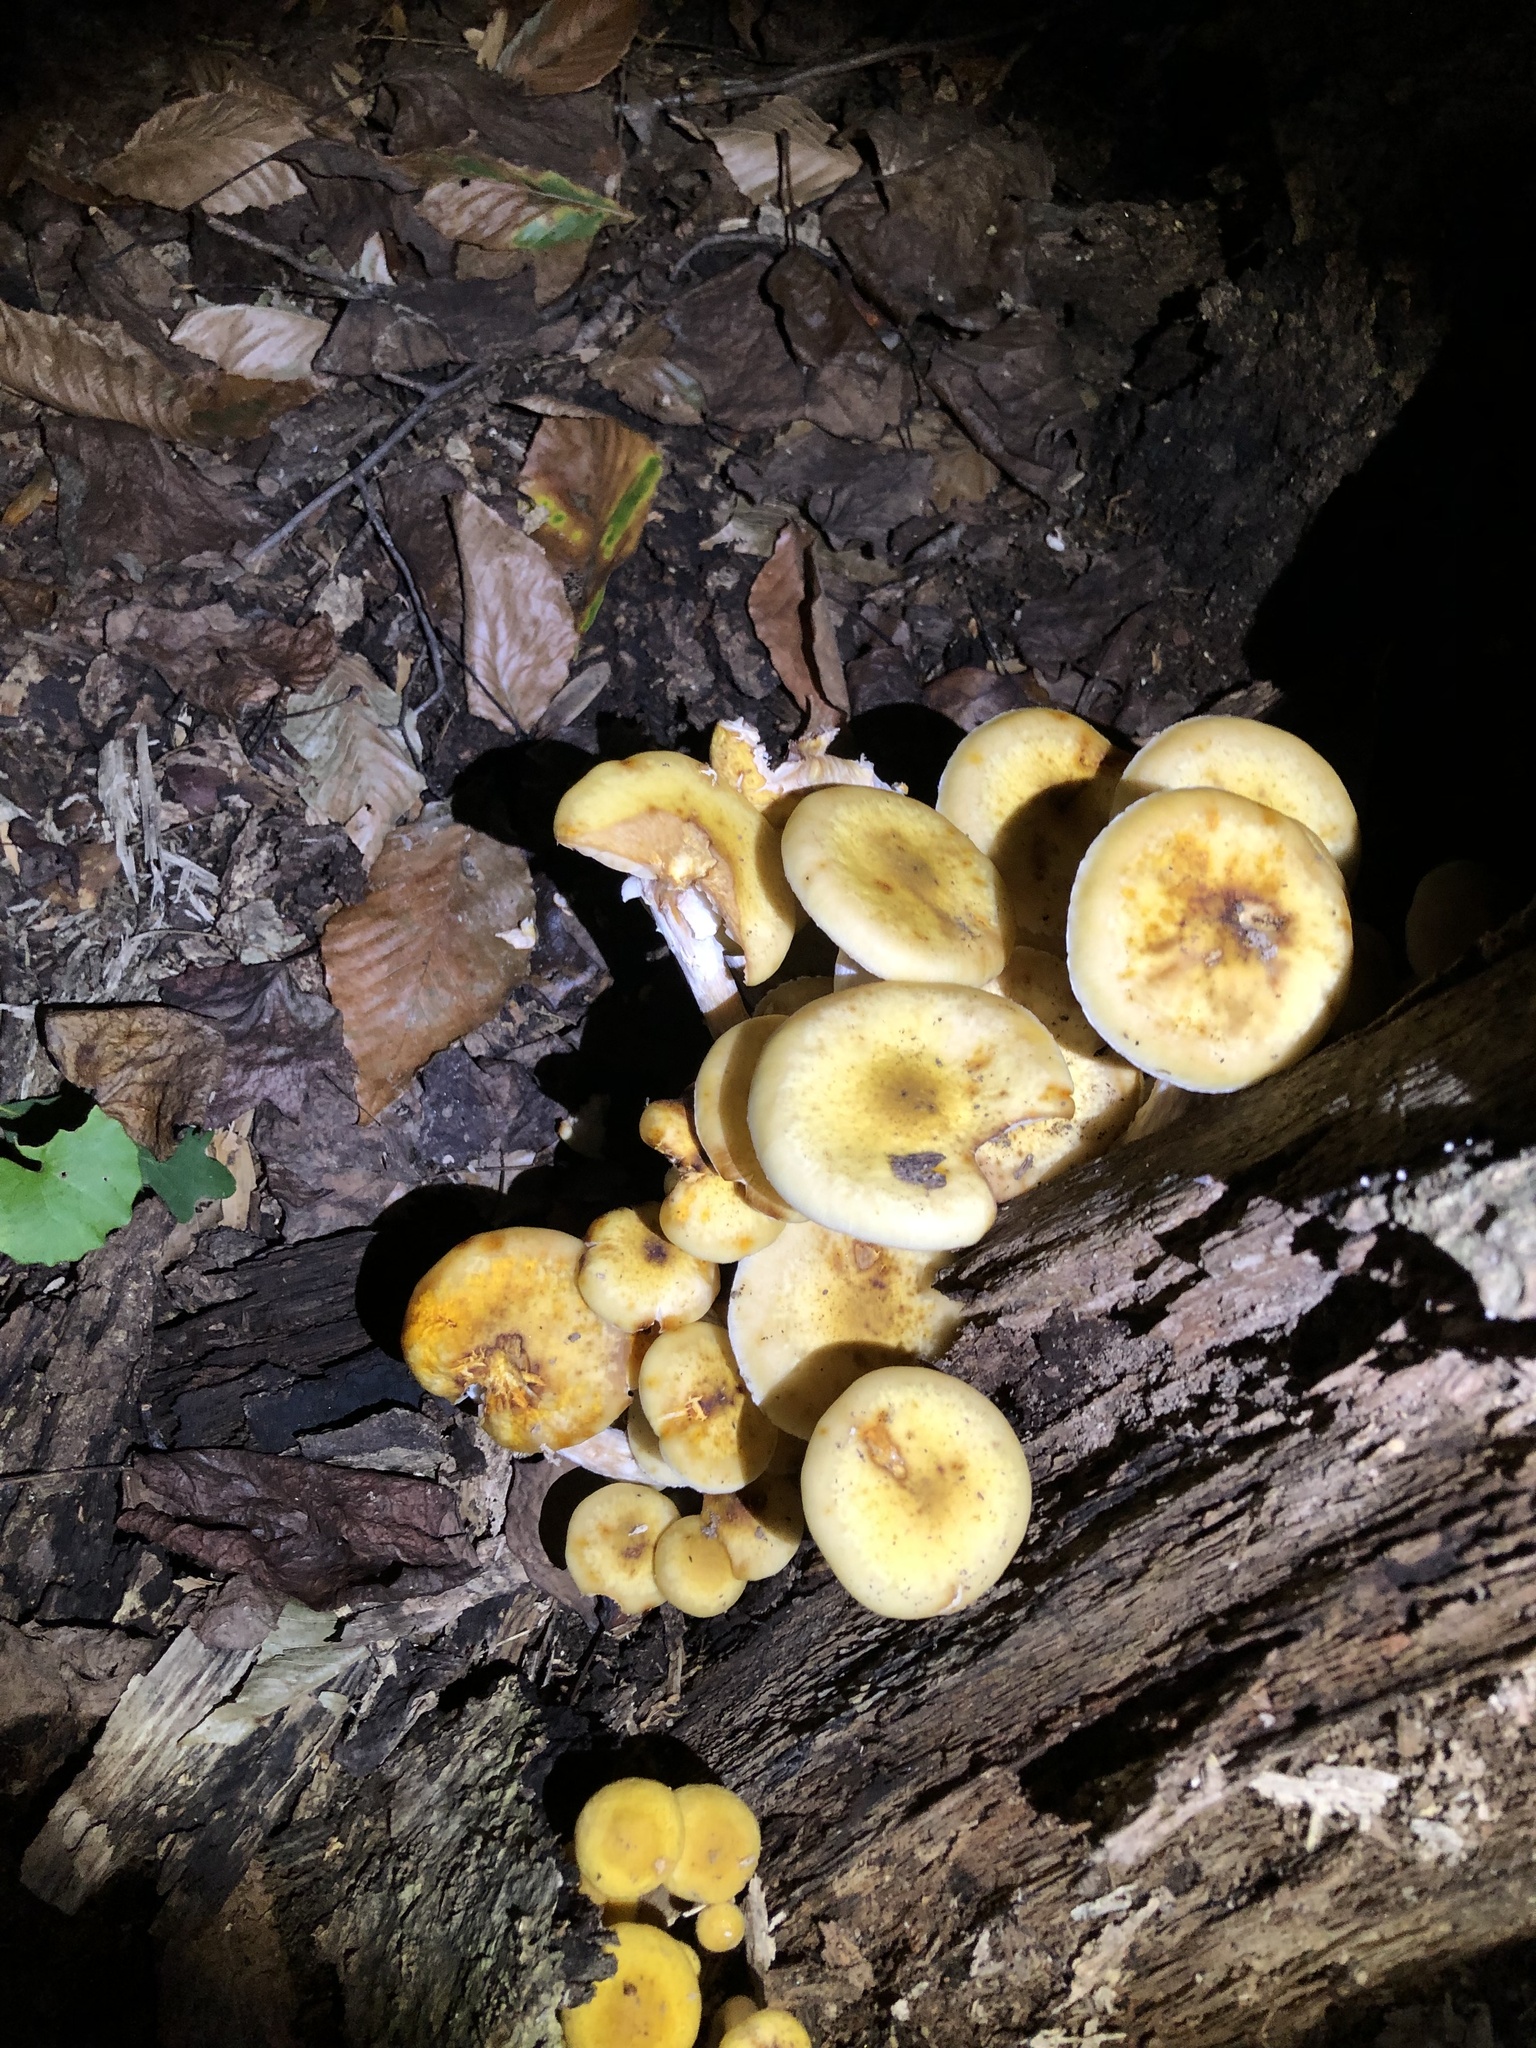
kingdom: Fungi
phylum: Basidiomycota
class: Agaricomycetes
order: Agaricales
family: Physalacriaceae
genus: Armillaria
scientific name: Armillaria mellea
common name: Honey fungus
